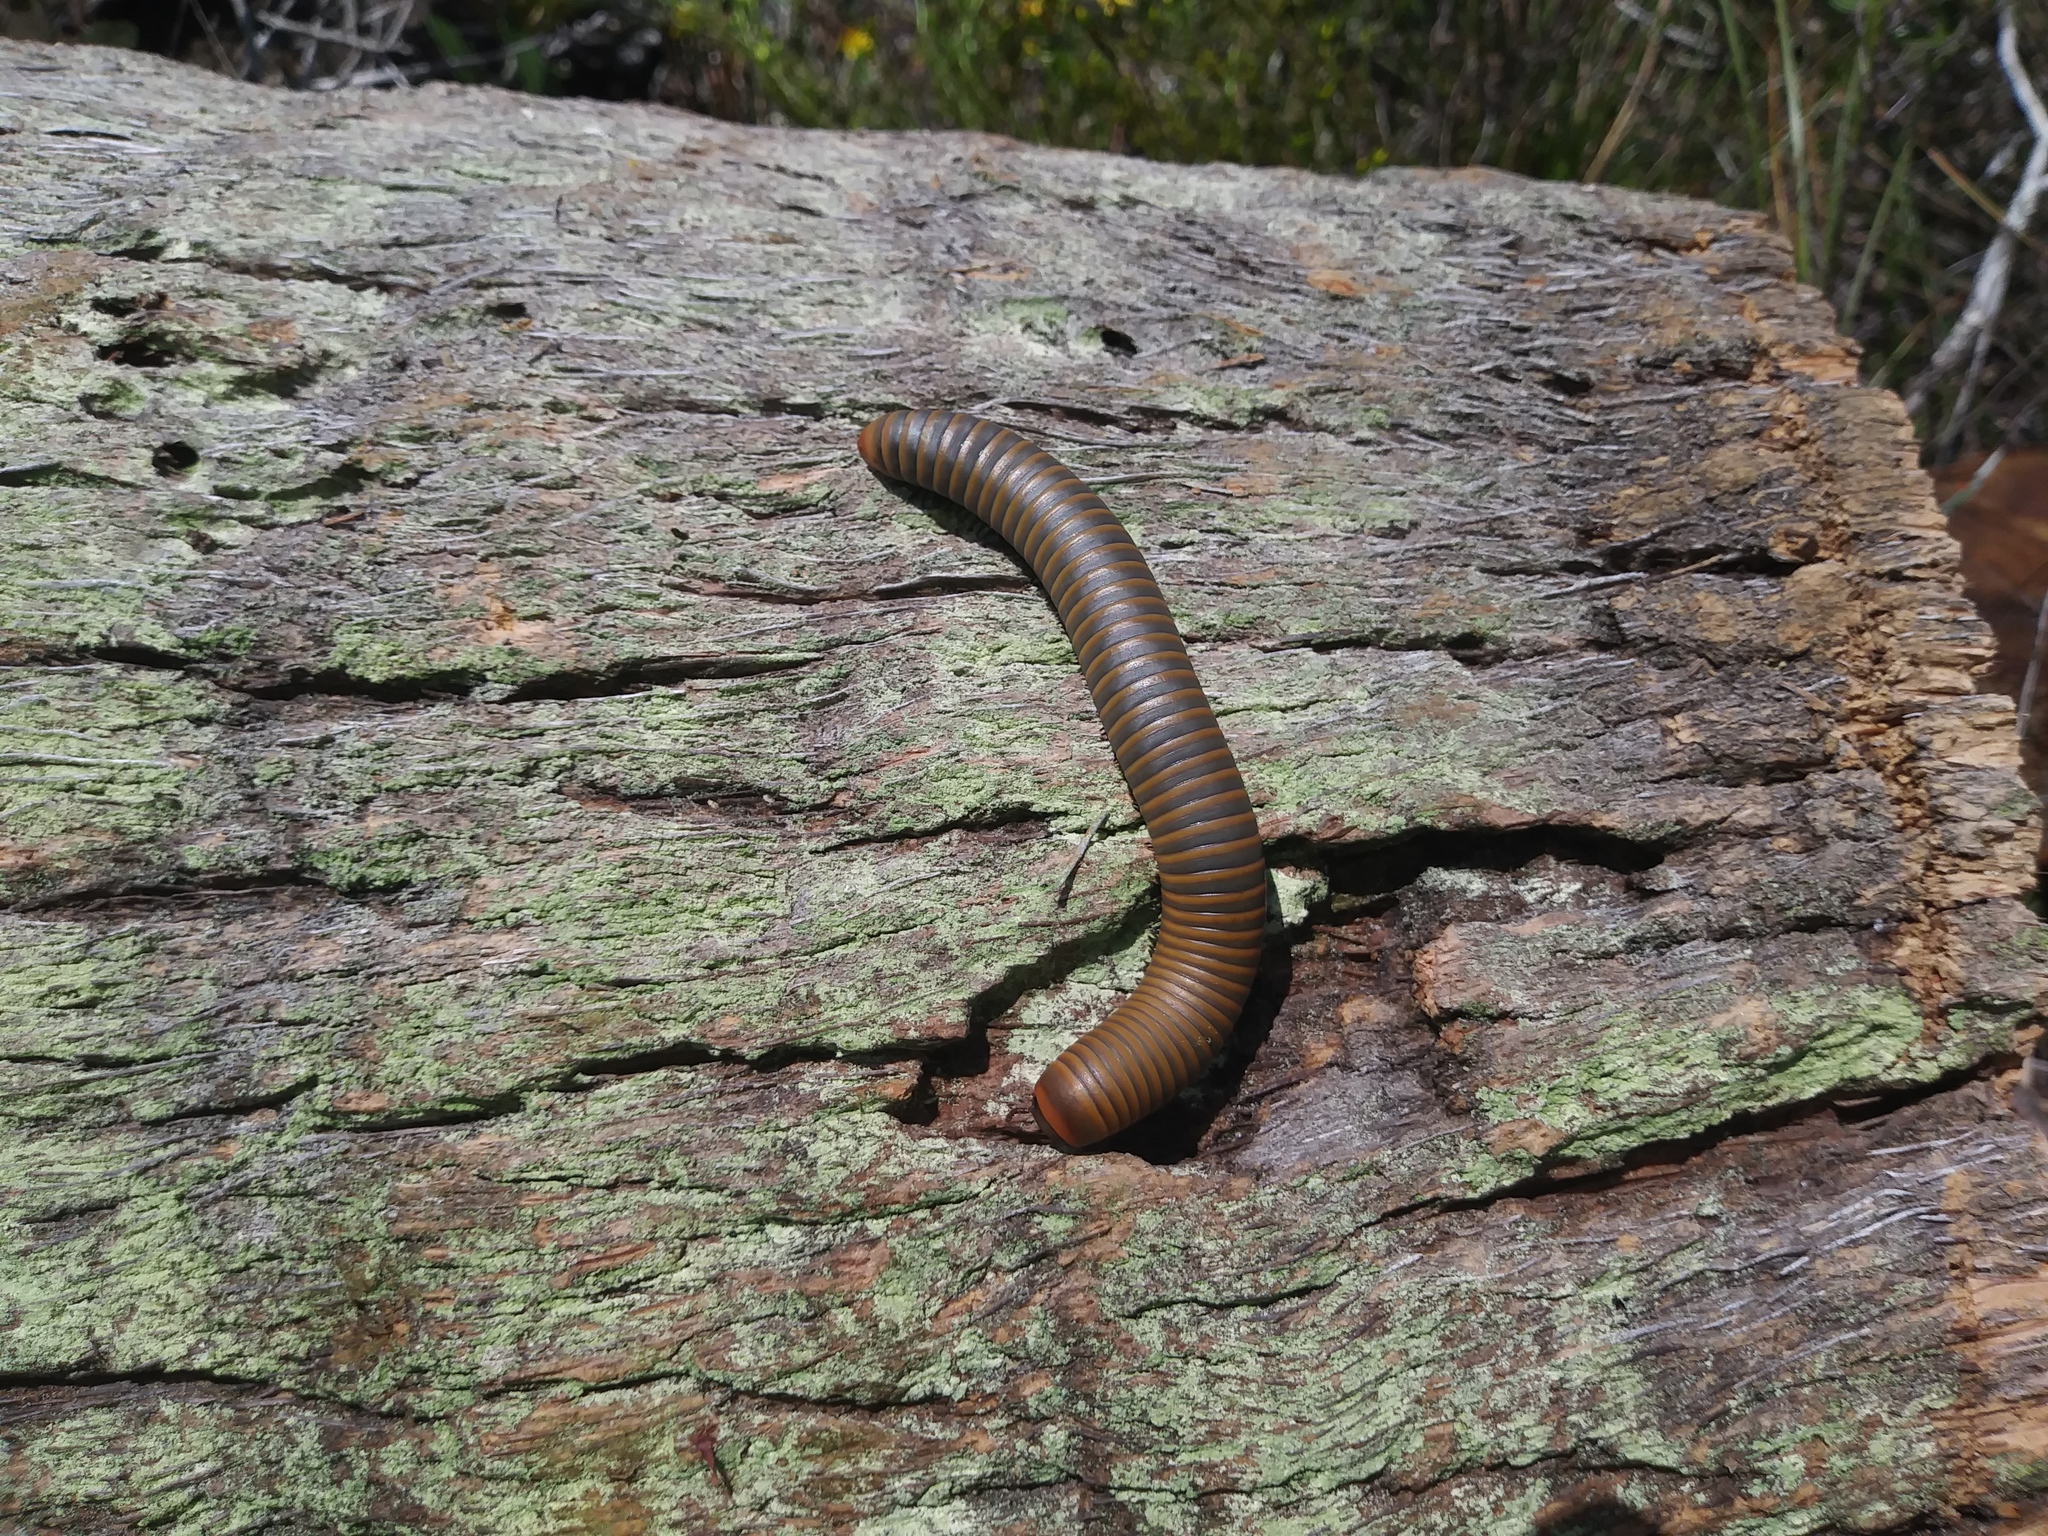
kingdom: Animalia
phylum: Arthropoda
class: Diplopoda
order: Spirobolida
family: Spirobolidae
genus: Narceus
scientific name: Narceus gordanus
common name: Grayish-green millipede
